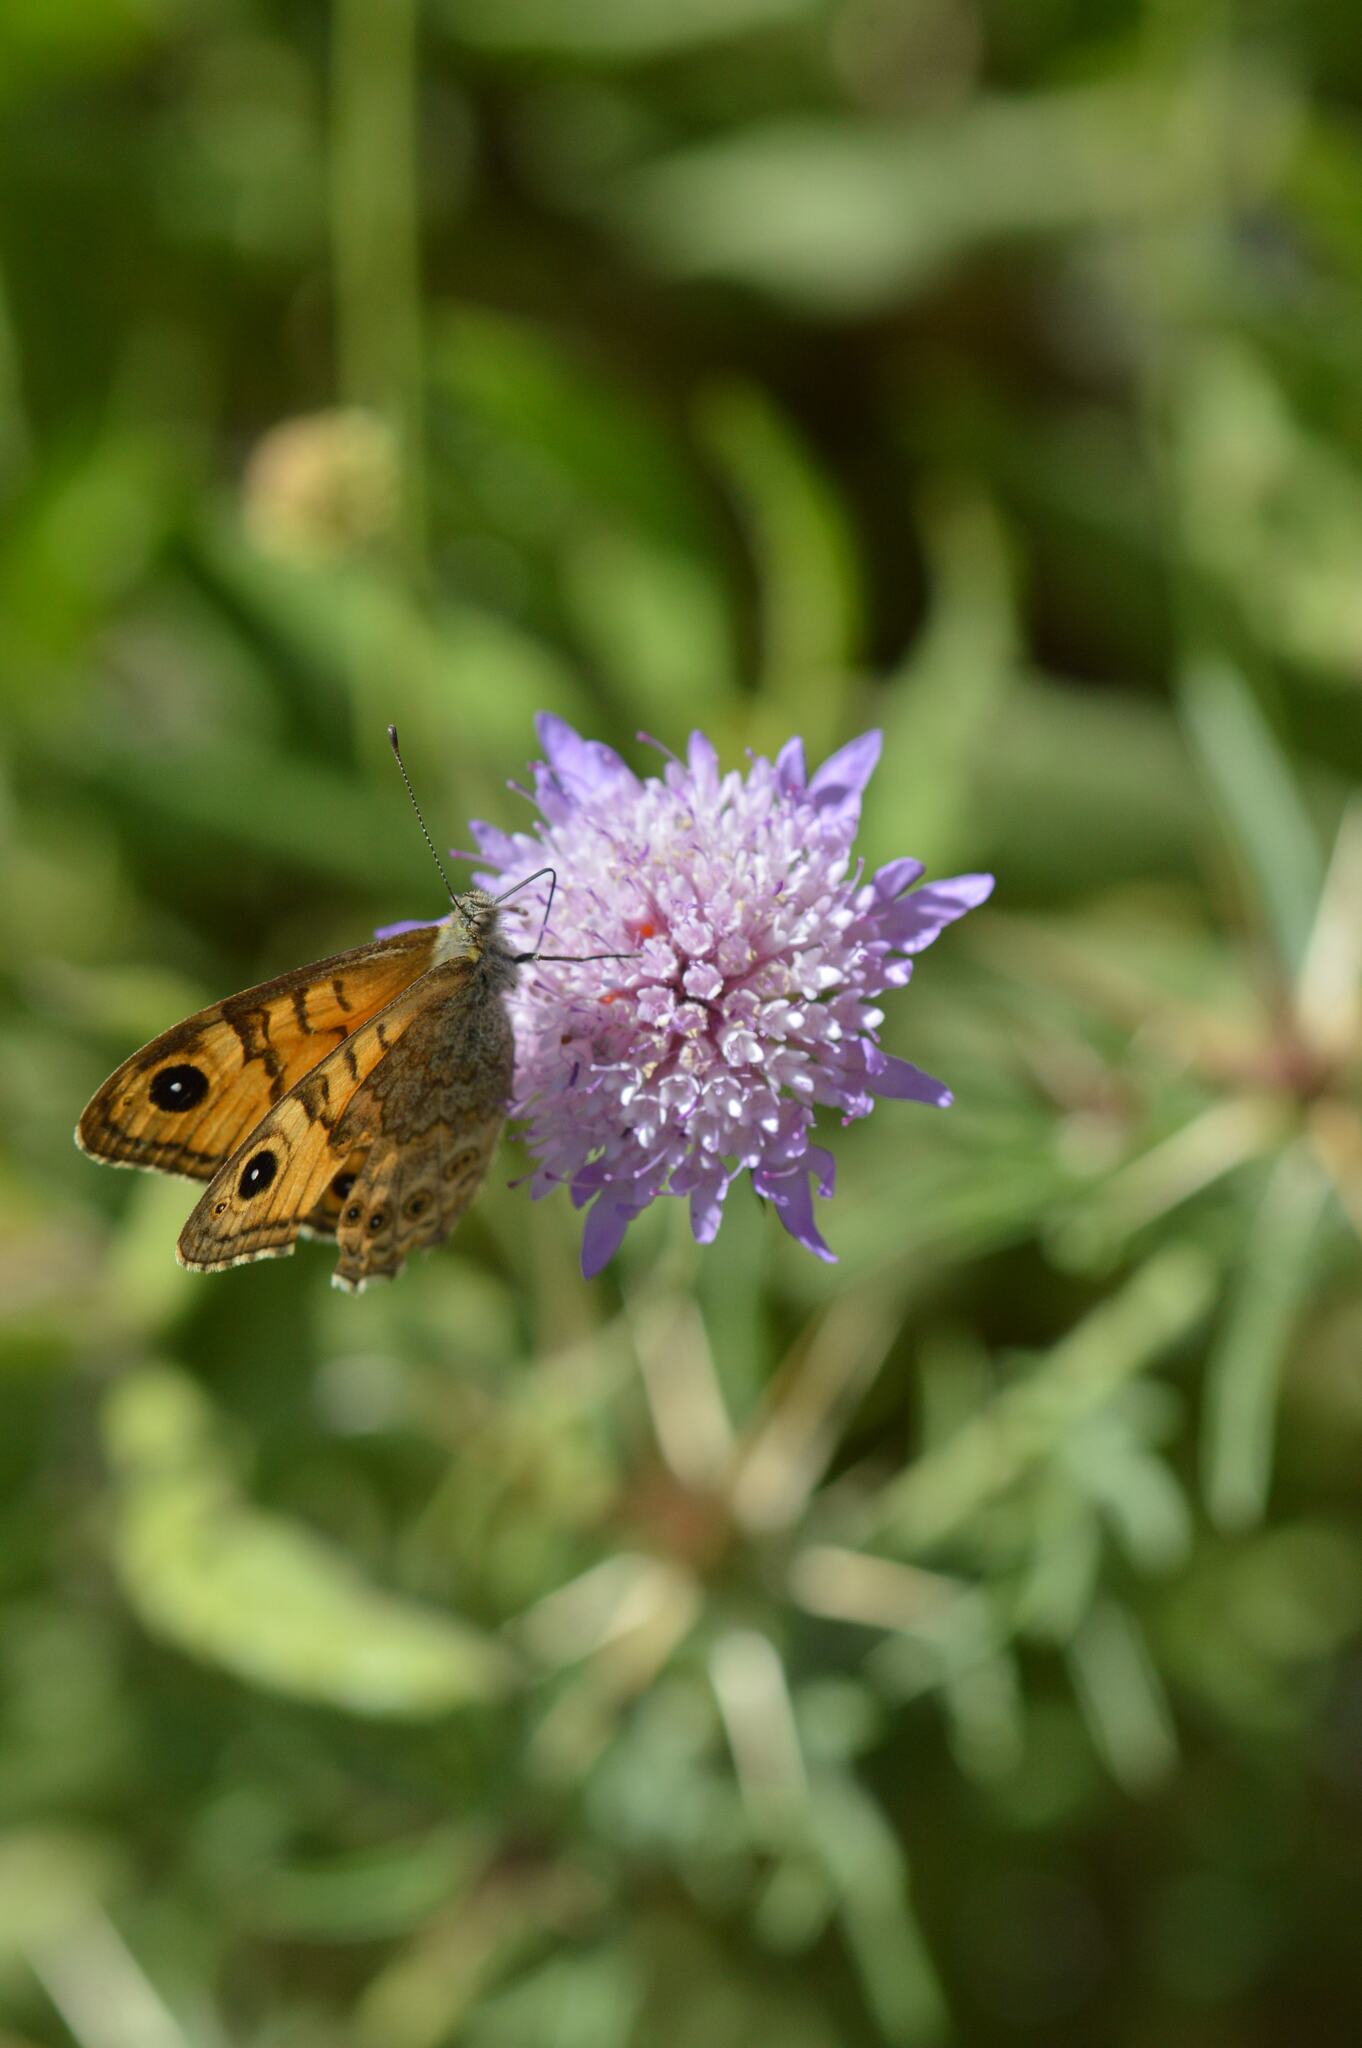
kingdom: Animalia
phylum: Arthropoda
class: Insecta
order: Lepidoptera
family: Nymphalidae
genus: Pararge
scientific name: Pararge Lasiommata megera
